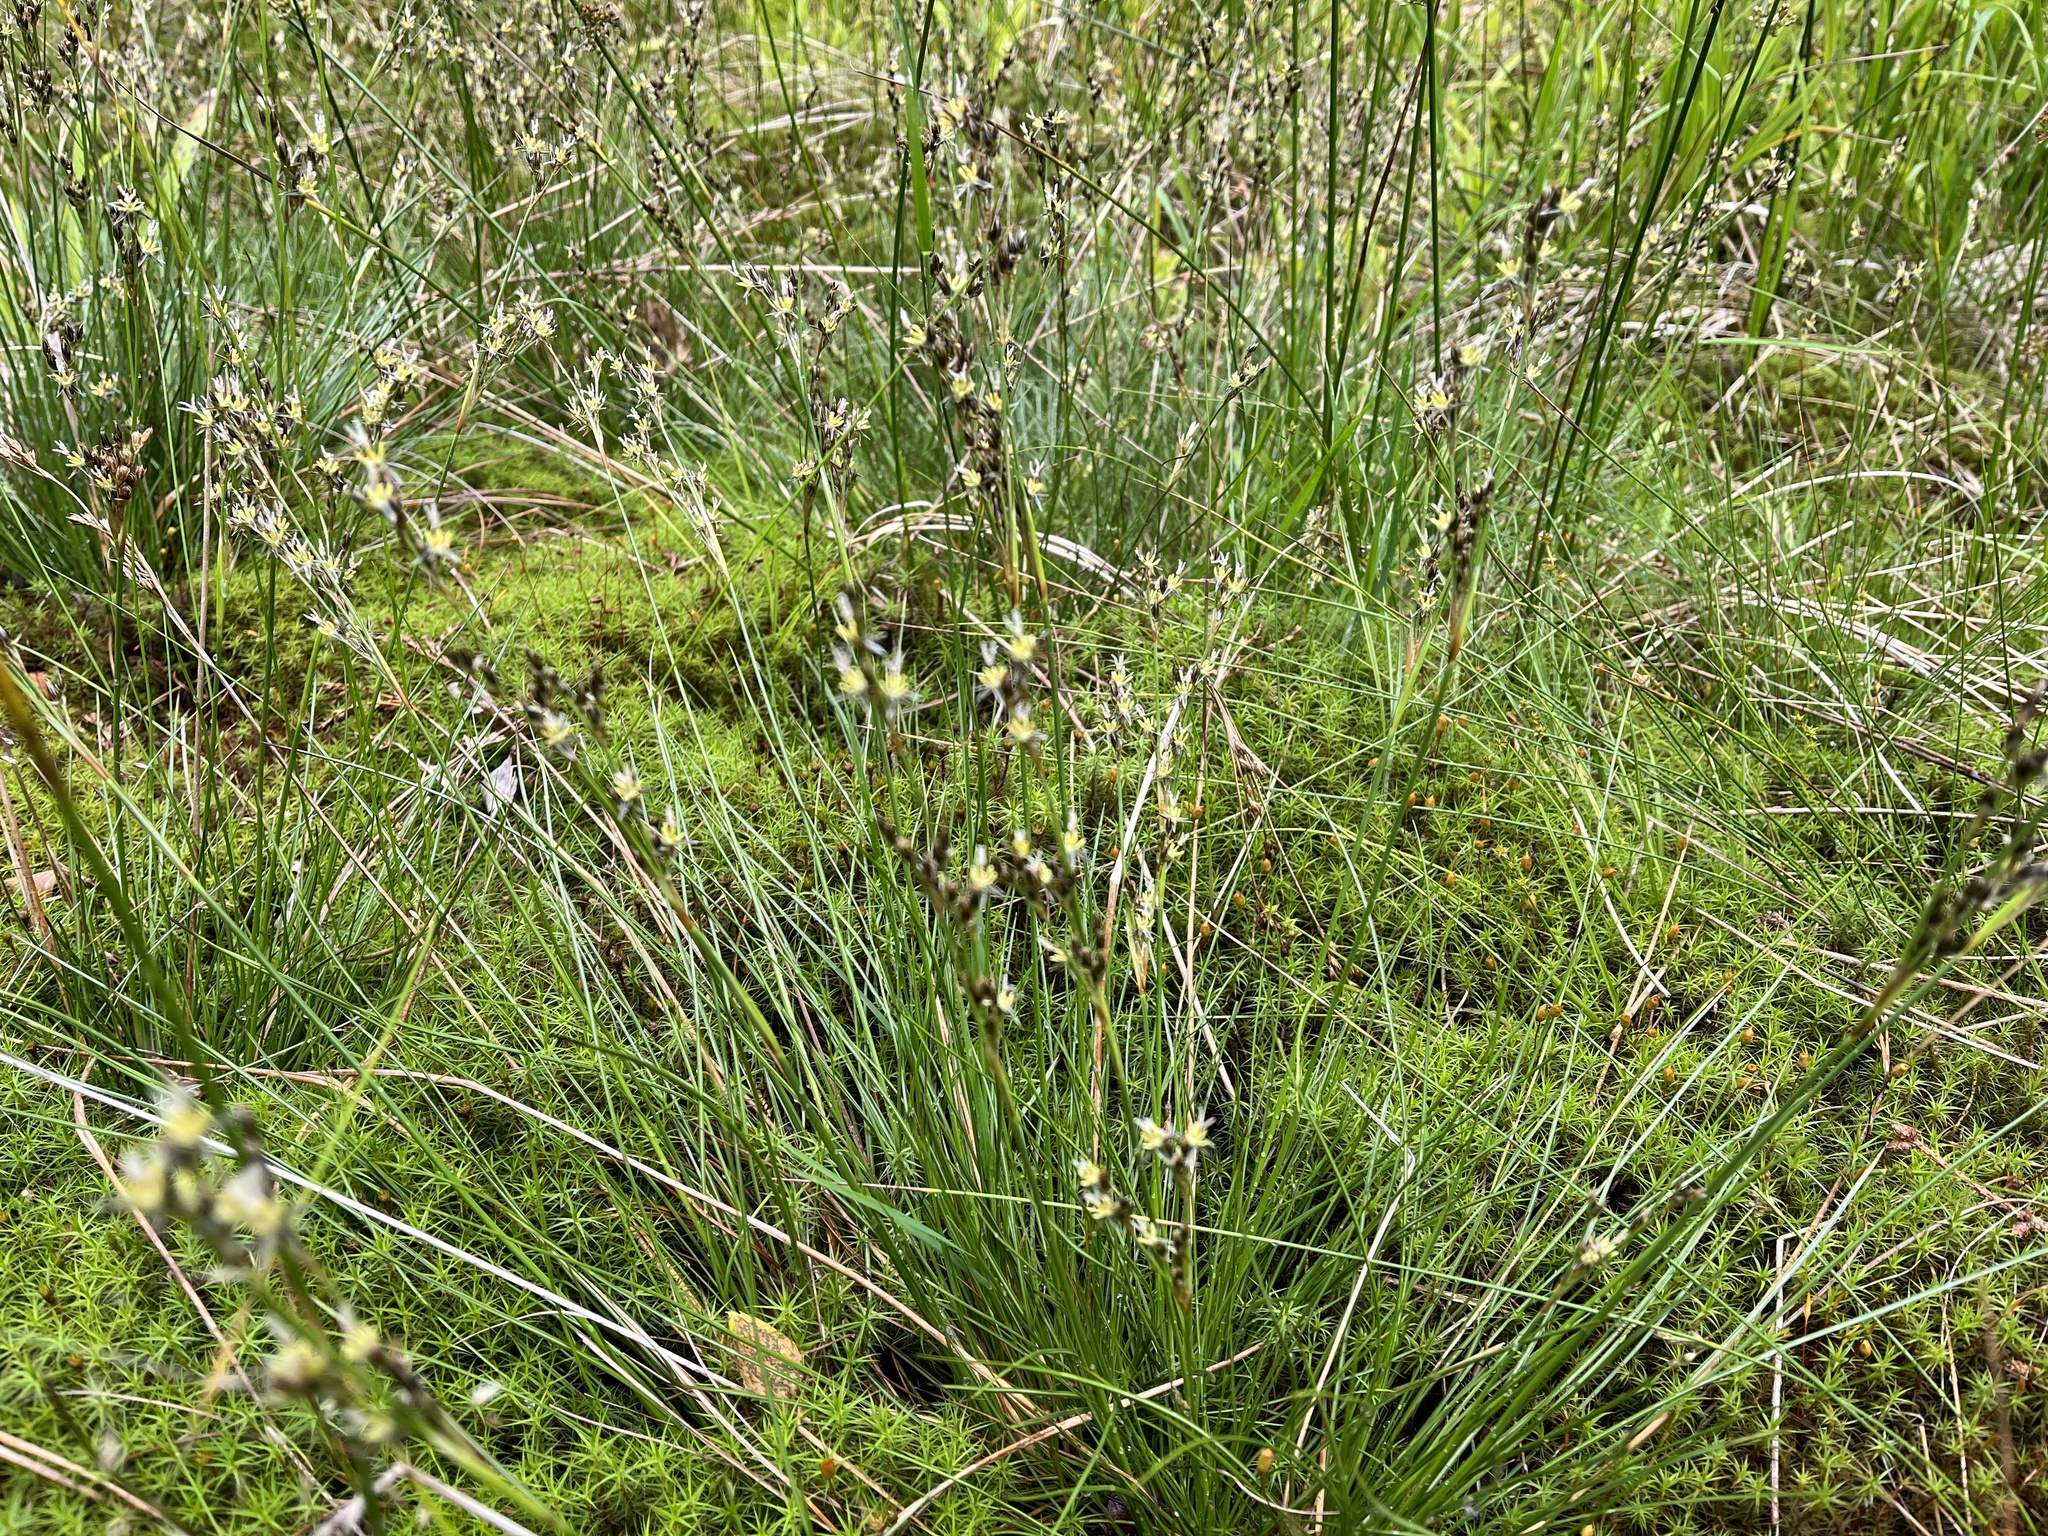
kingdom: Plantae
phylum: Tracheophyta
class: Liliopsida
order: Poales
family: Juncaceae
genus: Juncus
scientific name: Juncus squarrosus
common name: Heath rush
